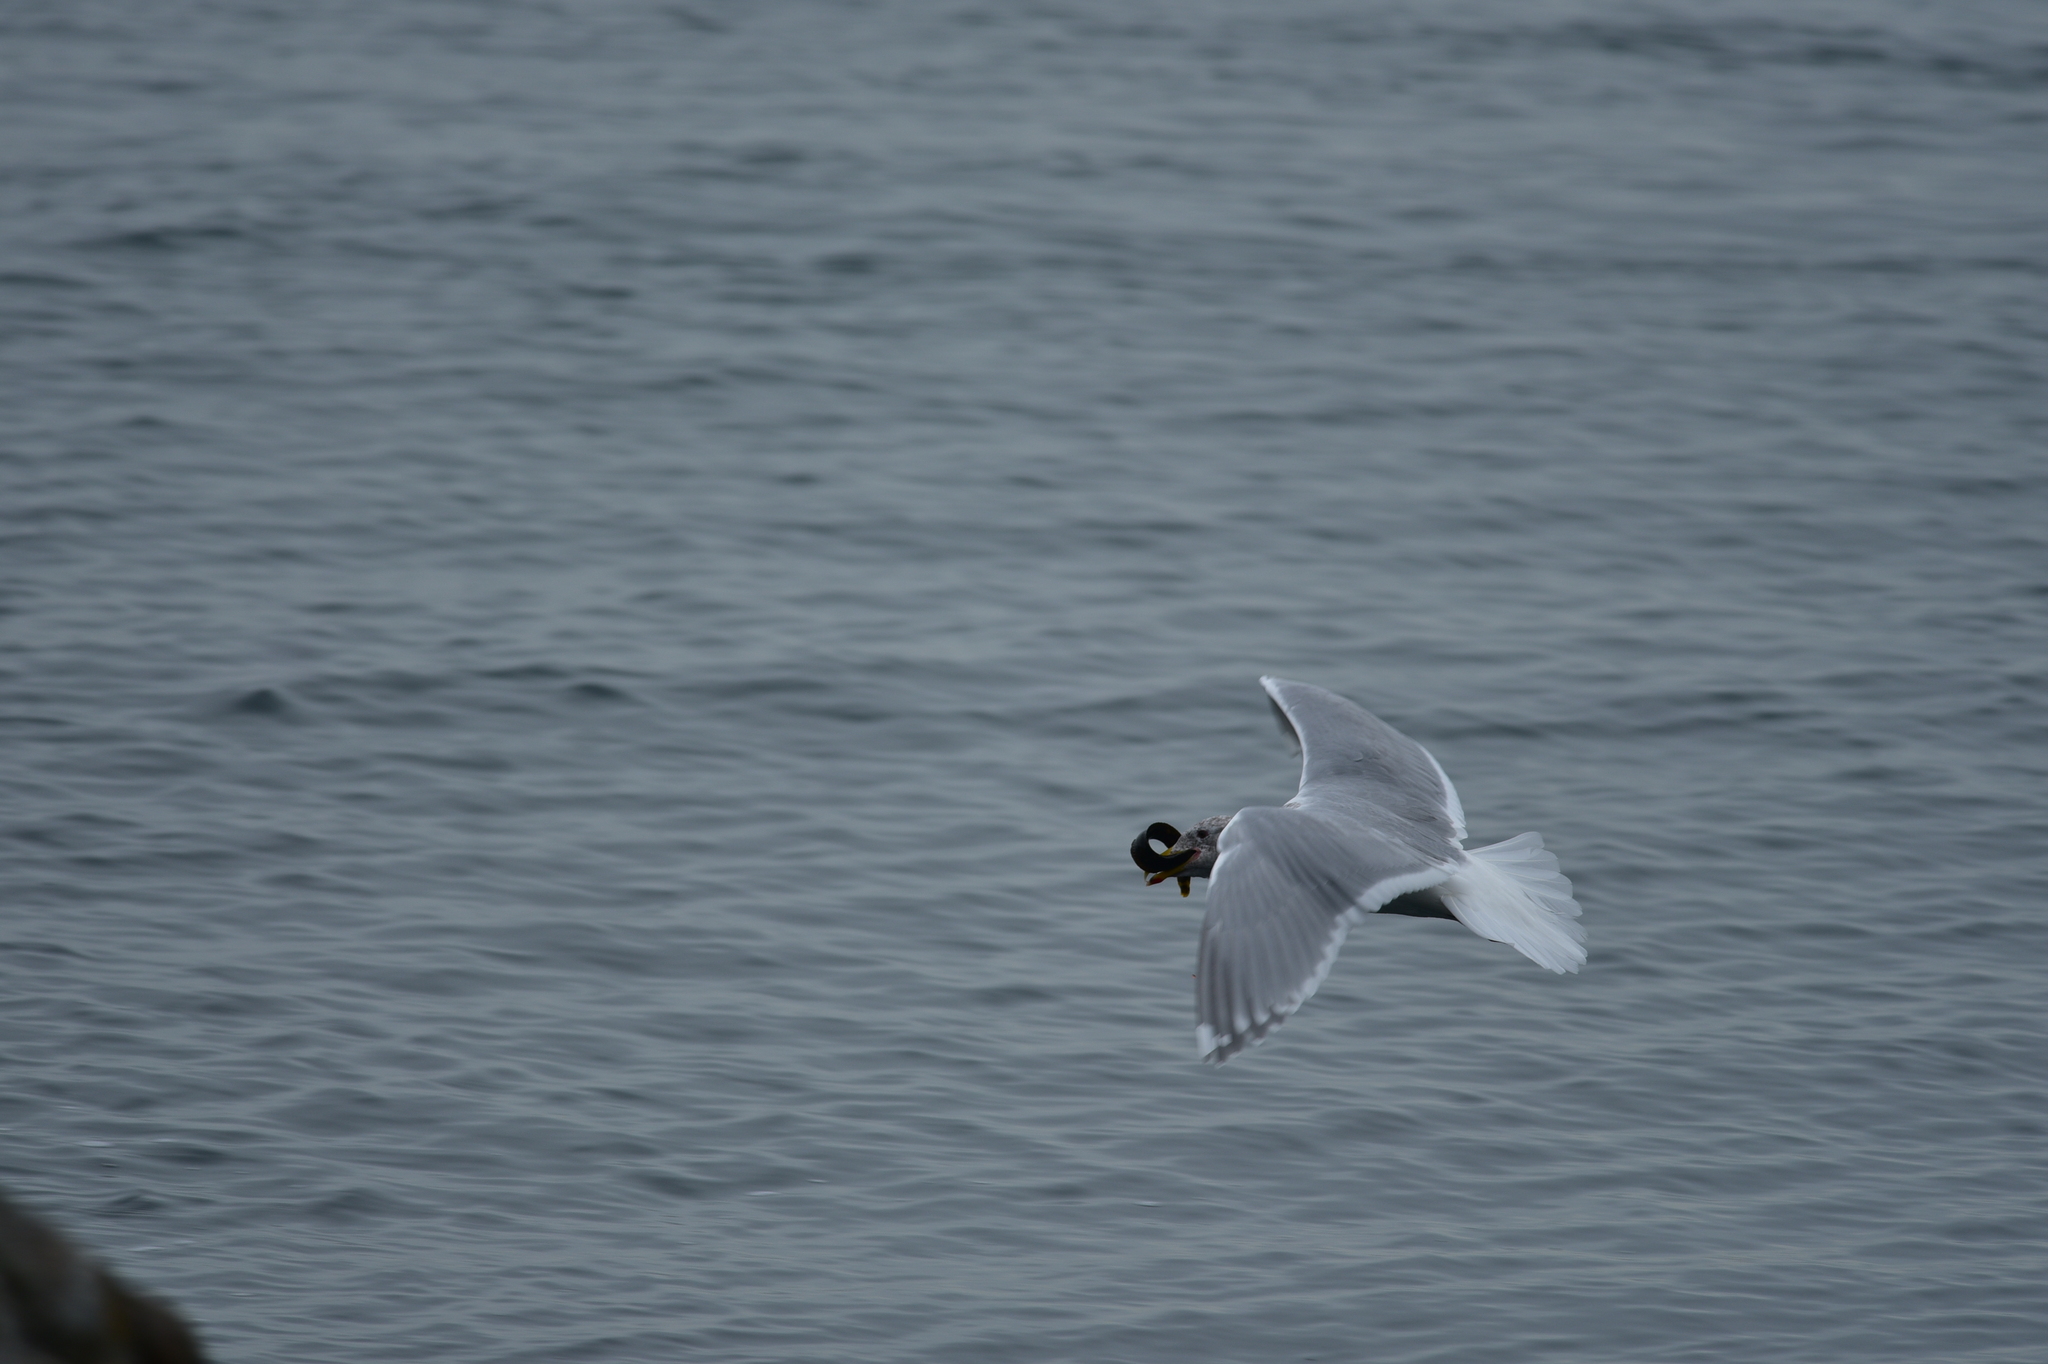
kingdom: Animalia
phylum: Chordata
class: Aves
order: Charadriiformes
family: Laridae
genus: Larus
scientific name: Larus glaucescens
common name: Glaucous-winged gull
